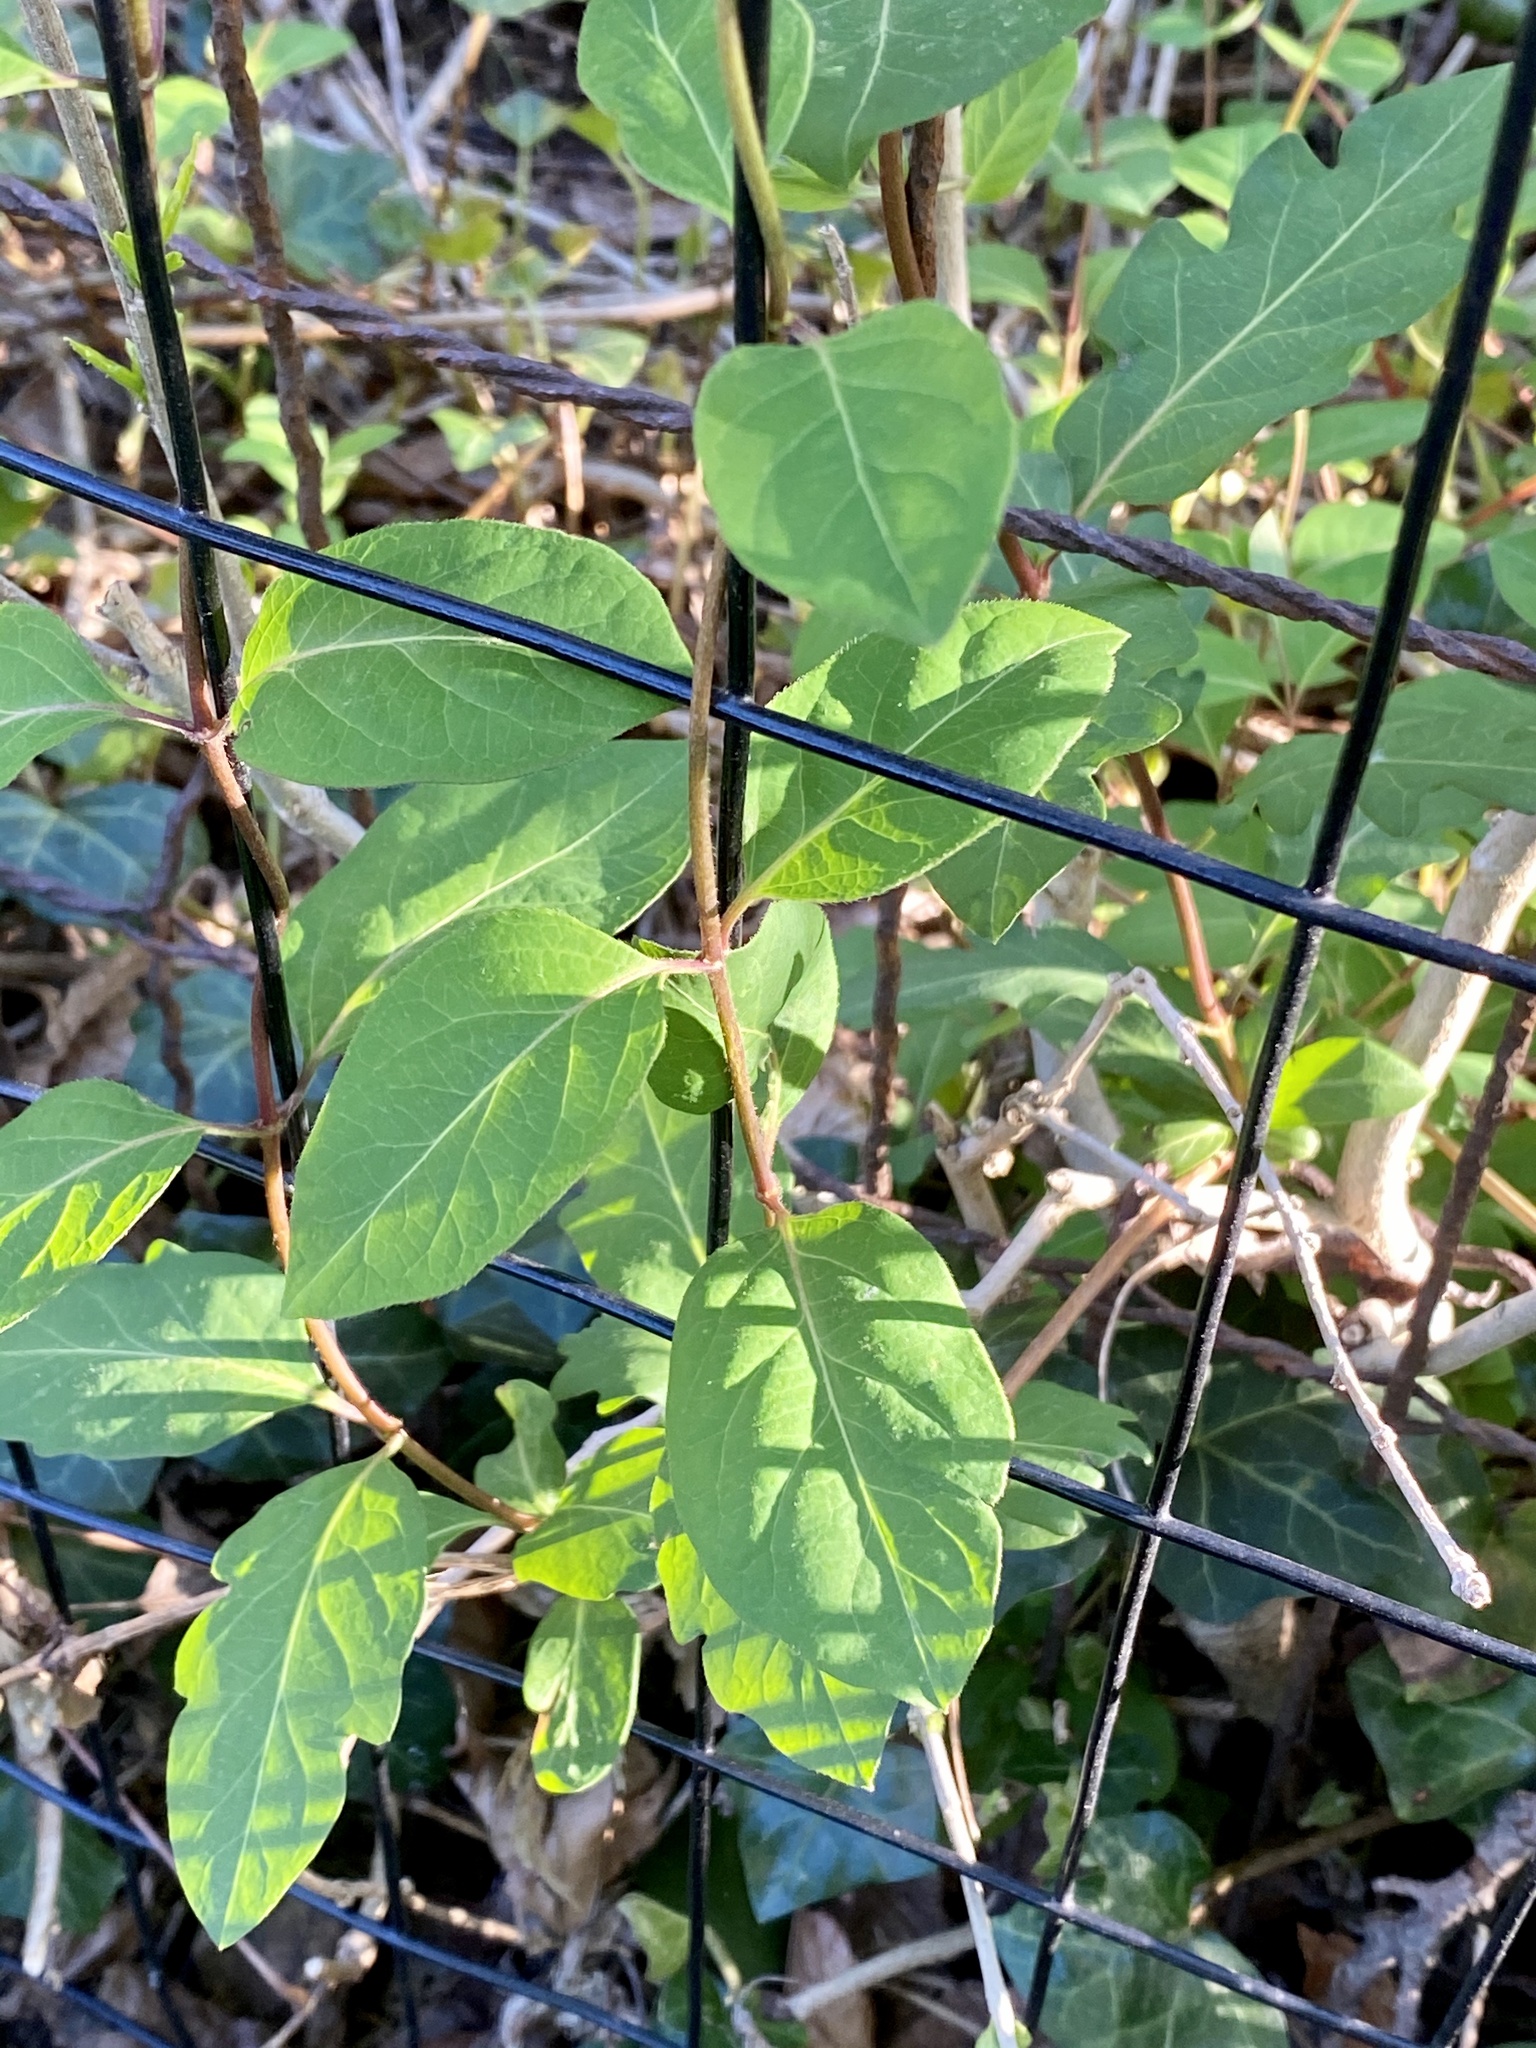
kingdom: Plantae
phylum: Tracheophyta
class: Magnoliopsida
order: Dipsacales
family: Caprifoliaceae
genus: Lonicera
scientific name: Lonicera japonica
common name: Japanese honeysuckle
